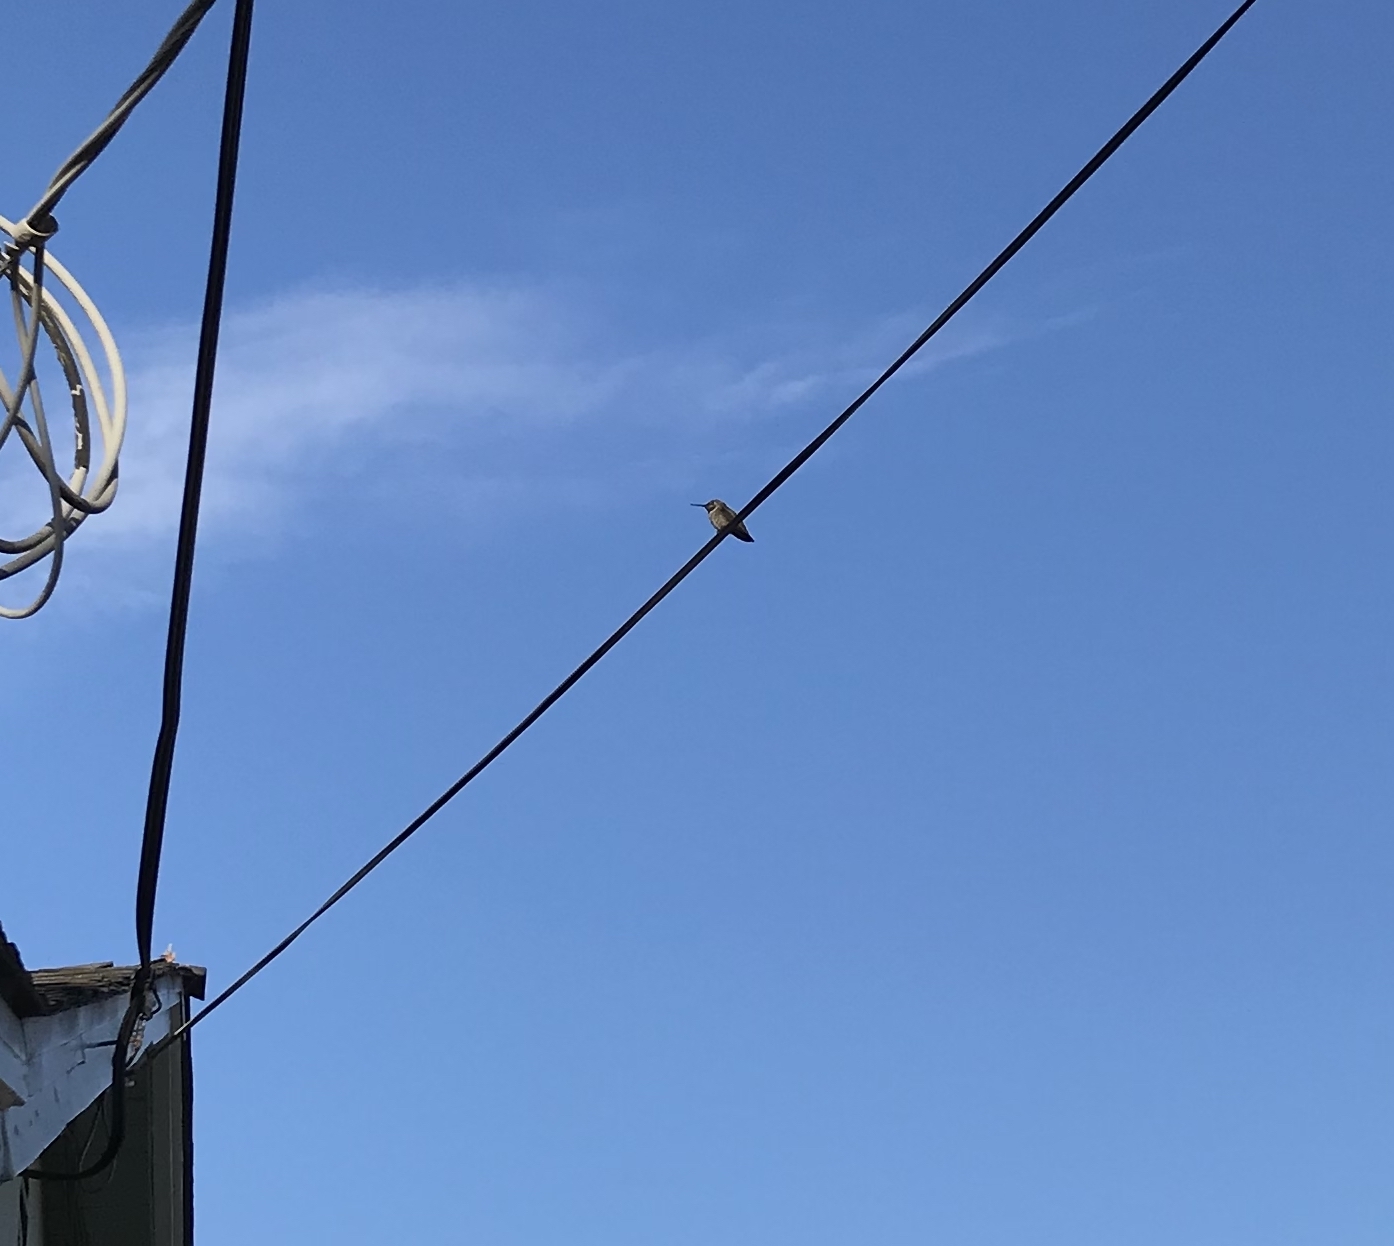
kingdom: Animalia
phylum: Chordata
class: Aves
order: Apodiformes
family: Trochilidae
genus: Calypte
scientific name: Calypte anna
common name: Anna's hummingbird
